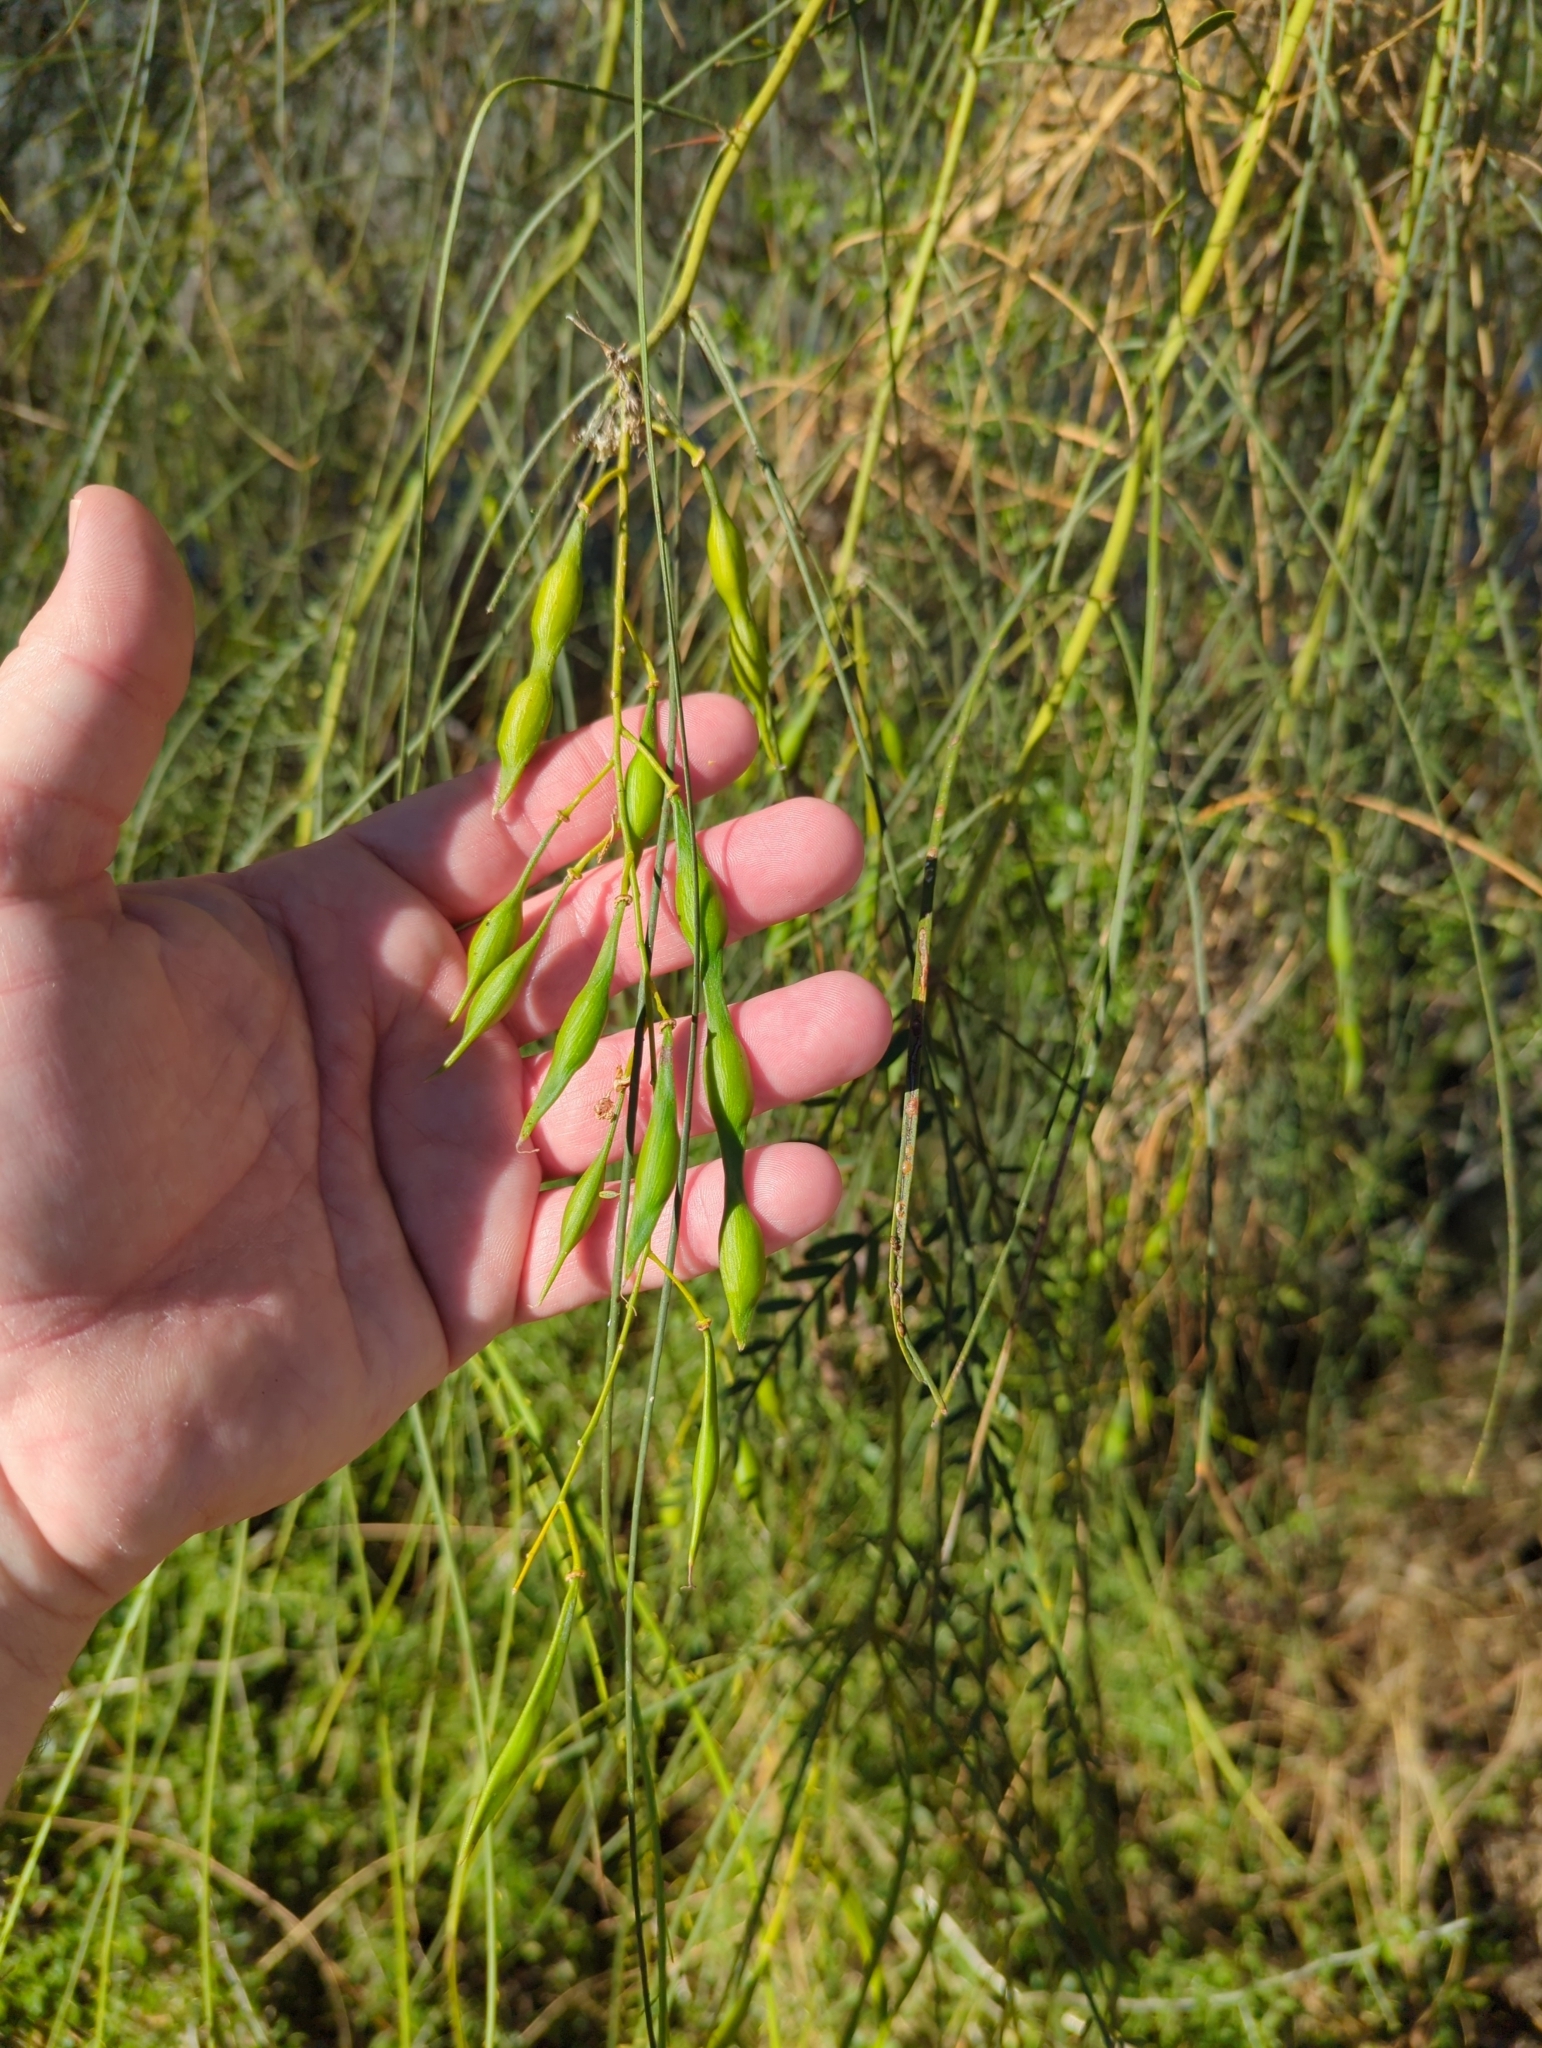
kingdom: Plantae
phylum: Tracheophyta
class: Magnoliopsida
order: Fabales
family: Fabaceae
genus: Parkinsonia
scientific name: Parkinsonia aculeata
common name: Jerusalem thorn
